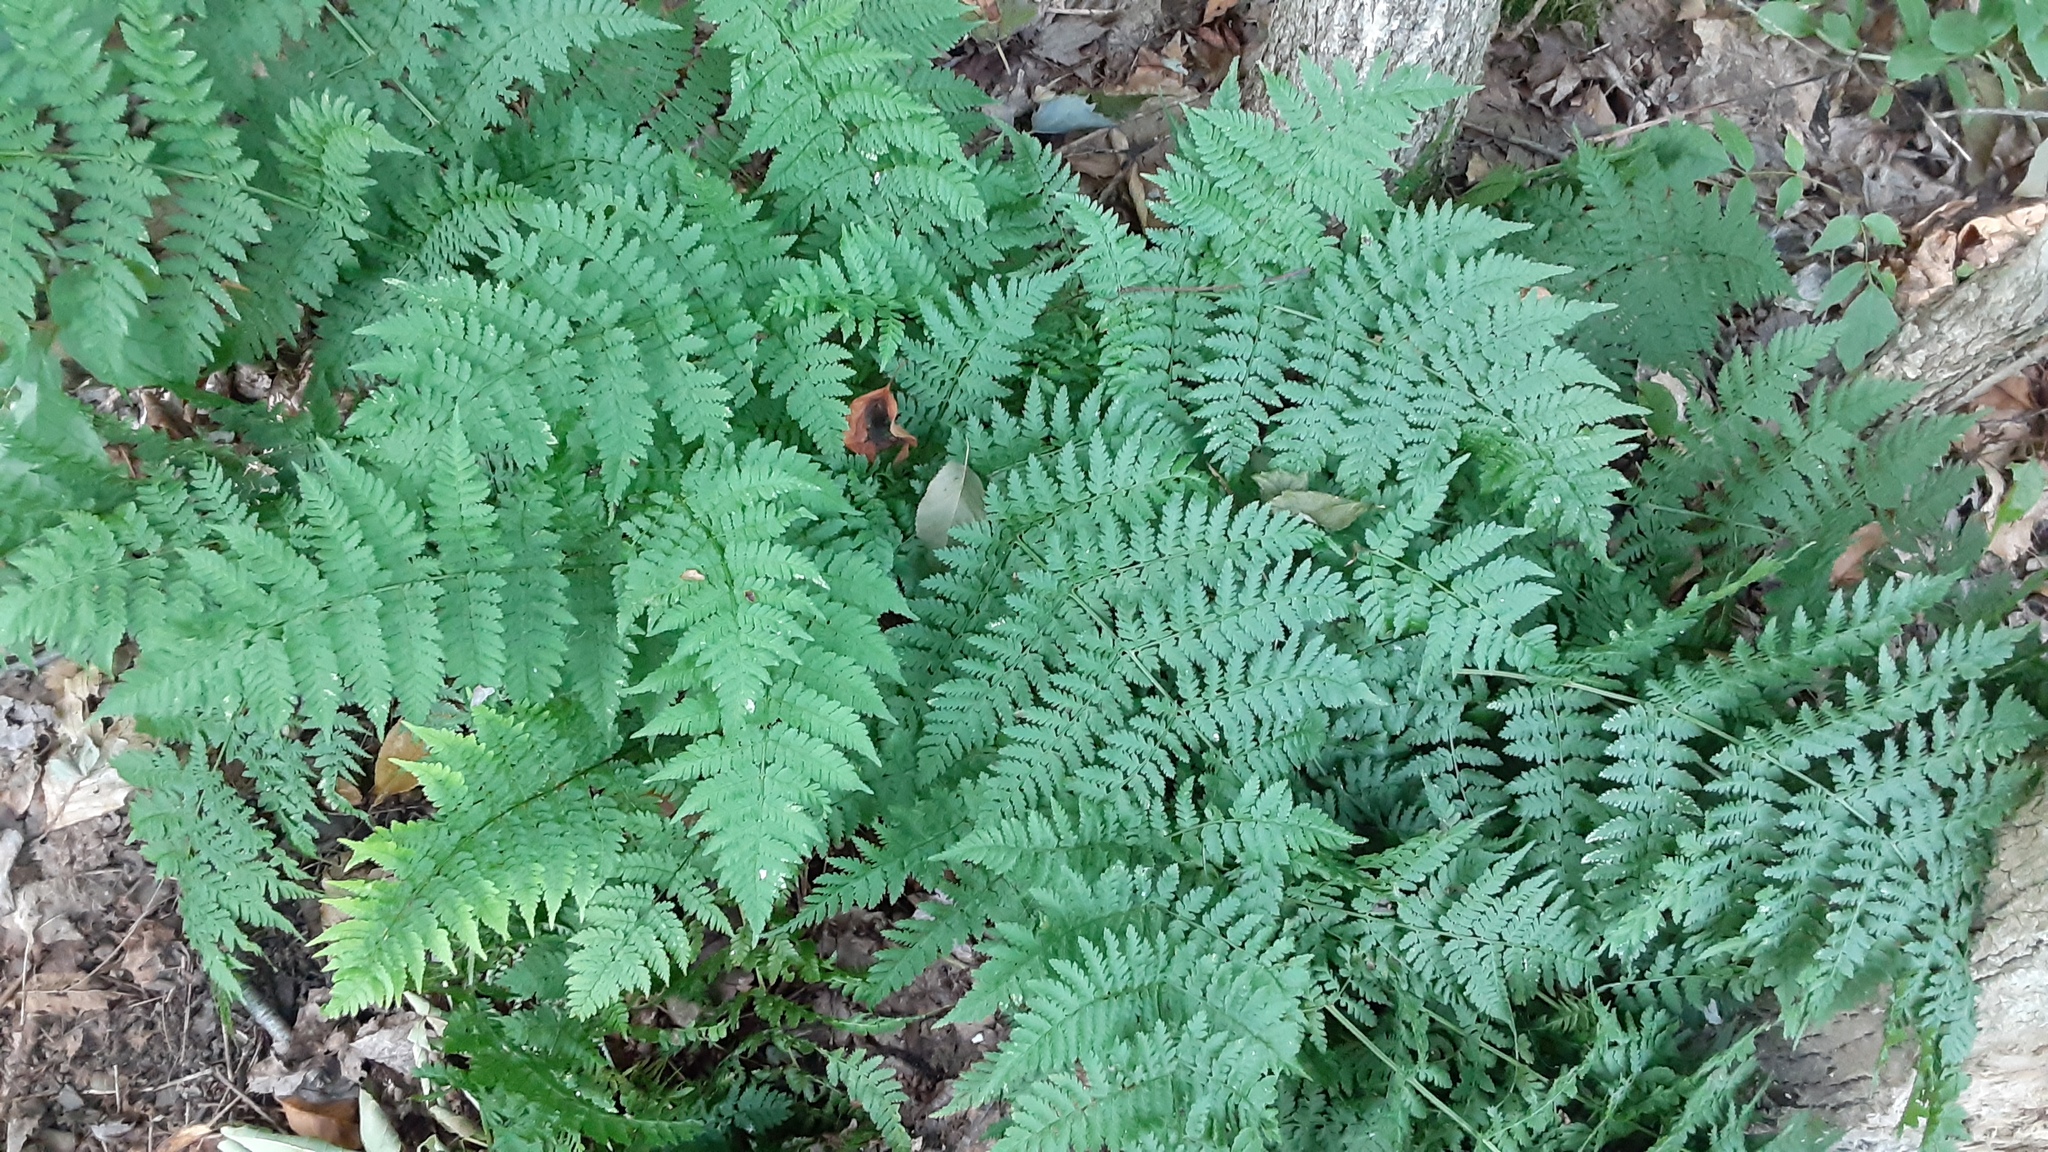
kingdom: Plantae
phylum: Tracheophyta
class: Polypodiopsida
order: Polypodiales
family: Dryopteridaceae
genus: Dryopteris
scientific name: Dryopteris intermedia
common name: Evergreen wood fern
